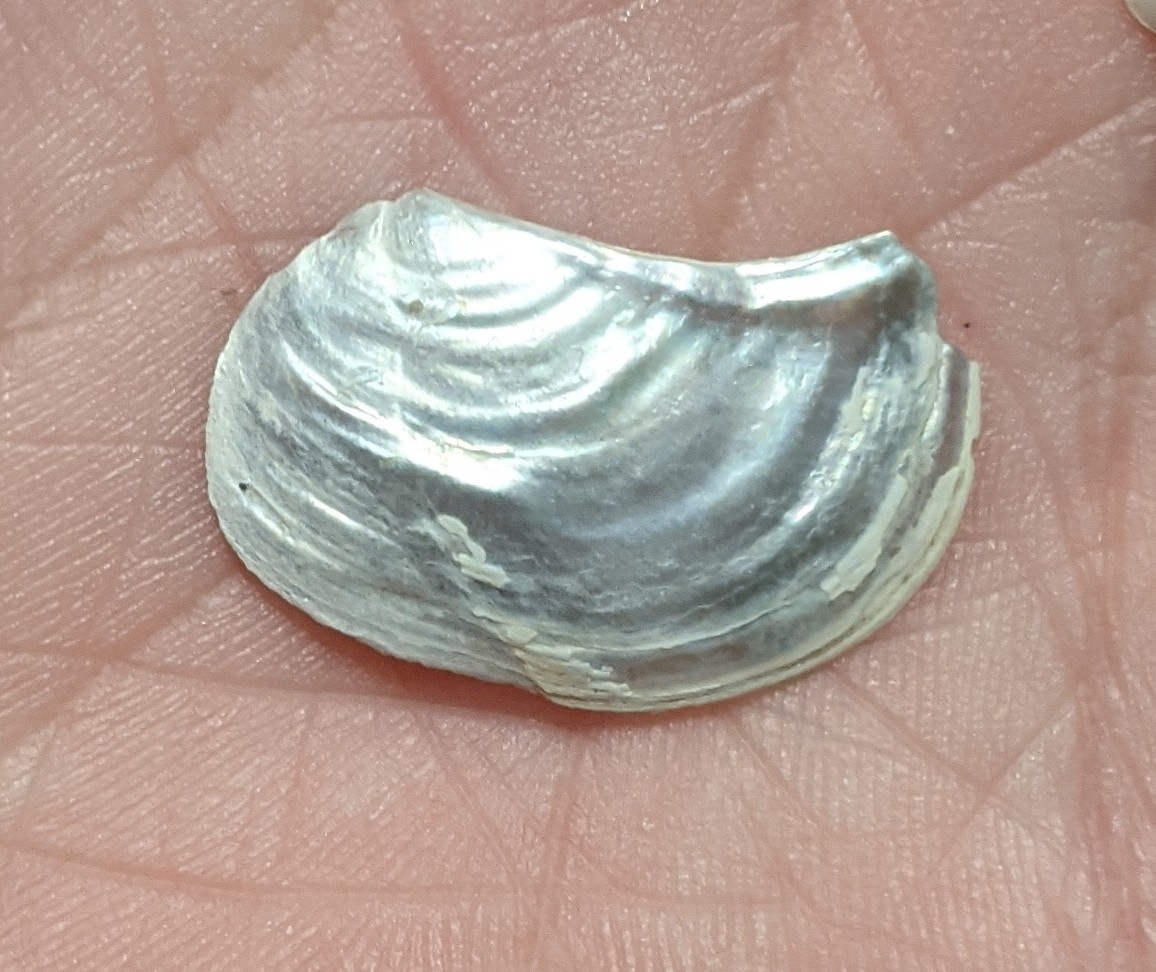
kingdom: Animalia
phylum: Mollusca
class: Bivalvia
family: Pandoridae
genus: Pandora
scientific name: Pandora gouldiana
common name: Rounded pandora
